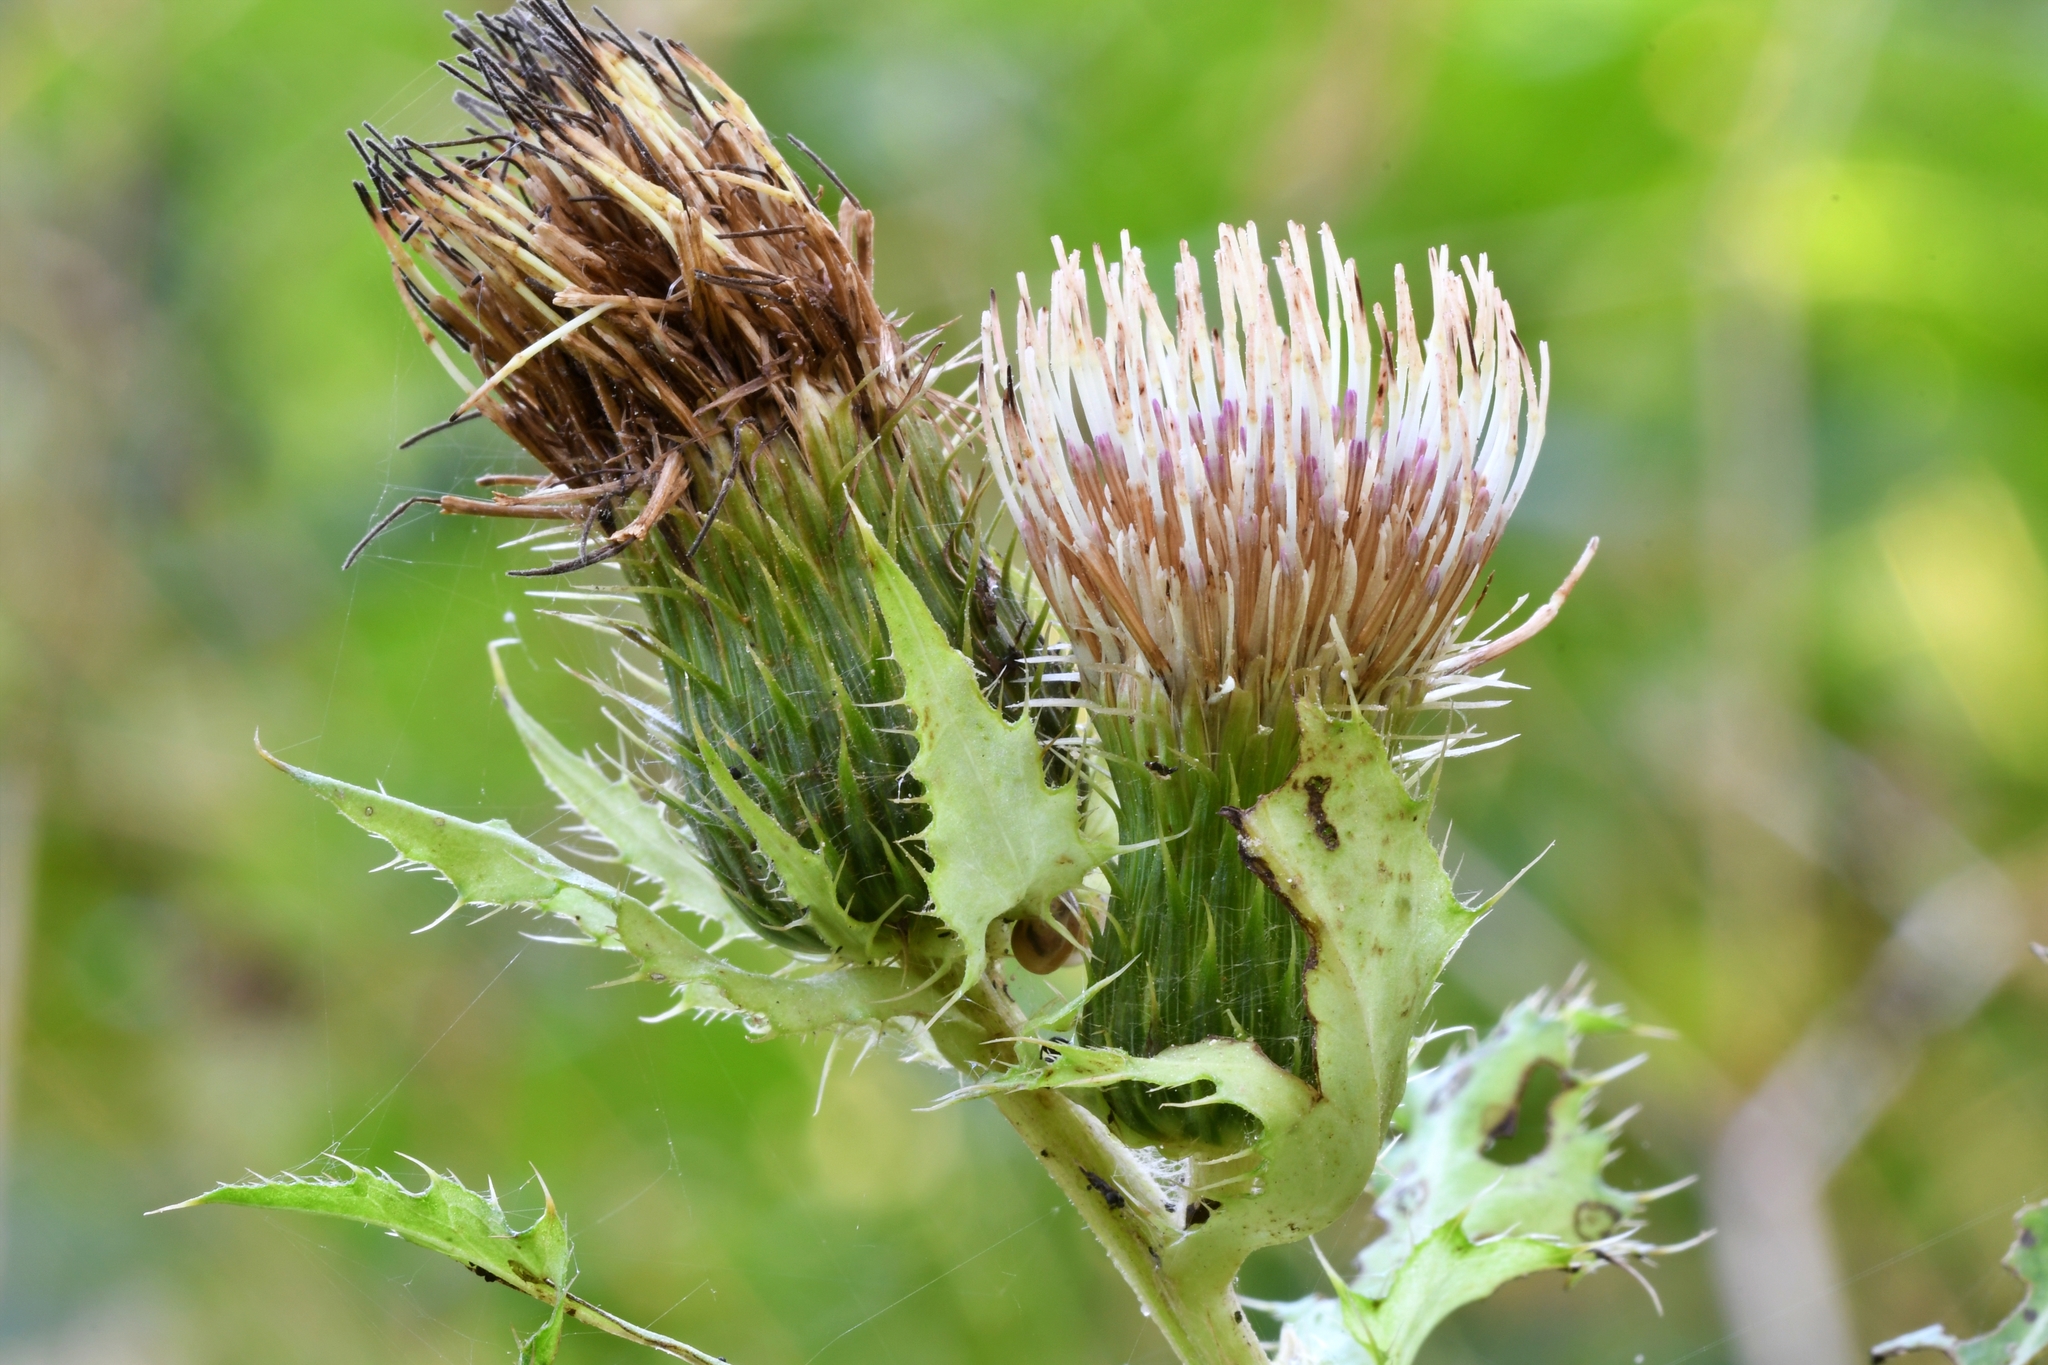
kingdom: Plantae
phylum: Tracheophyta
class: Magnoliopsida
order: Asterales
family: Asteraceae
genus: Cirsium
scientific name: Cirsium oleraceum
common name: Cabbage thistle
